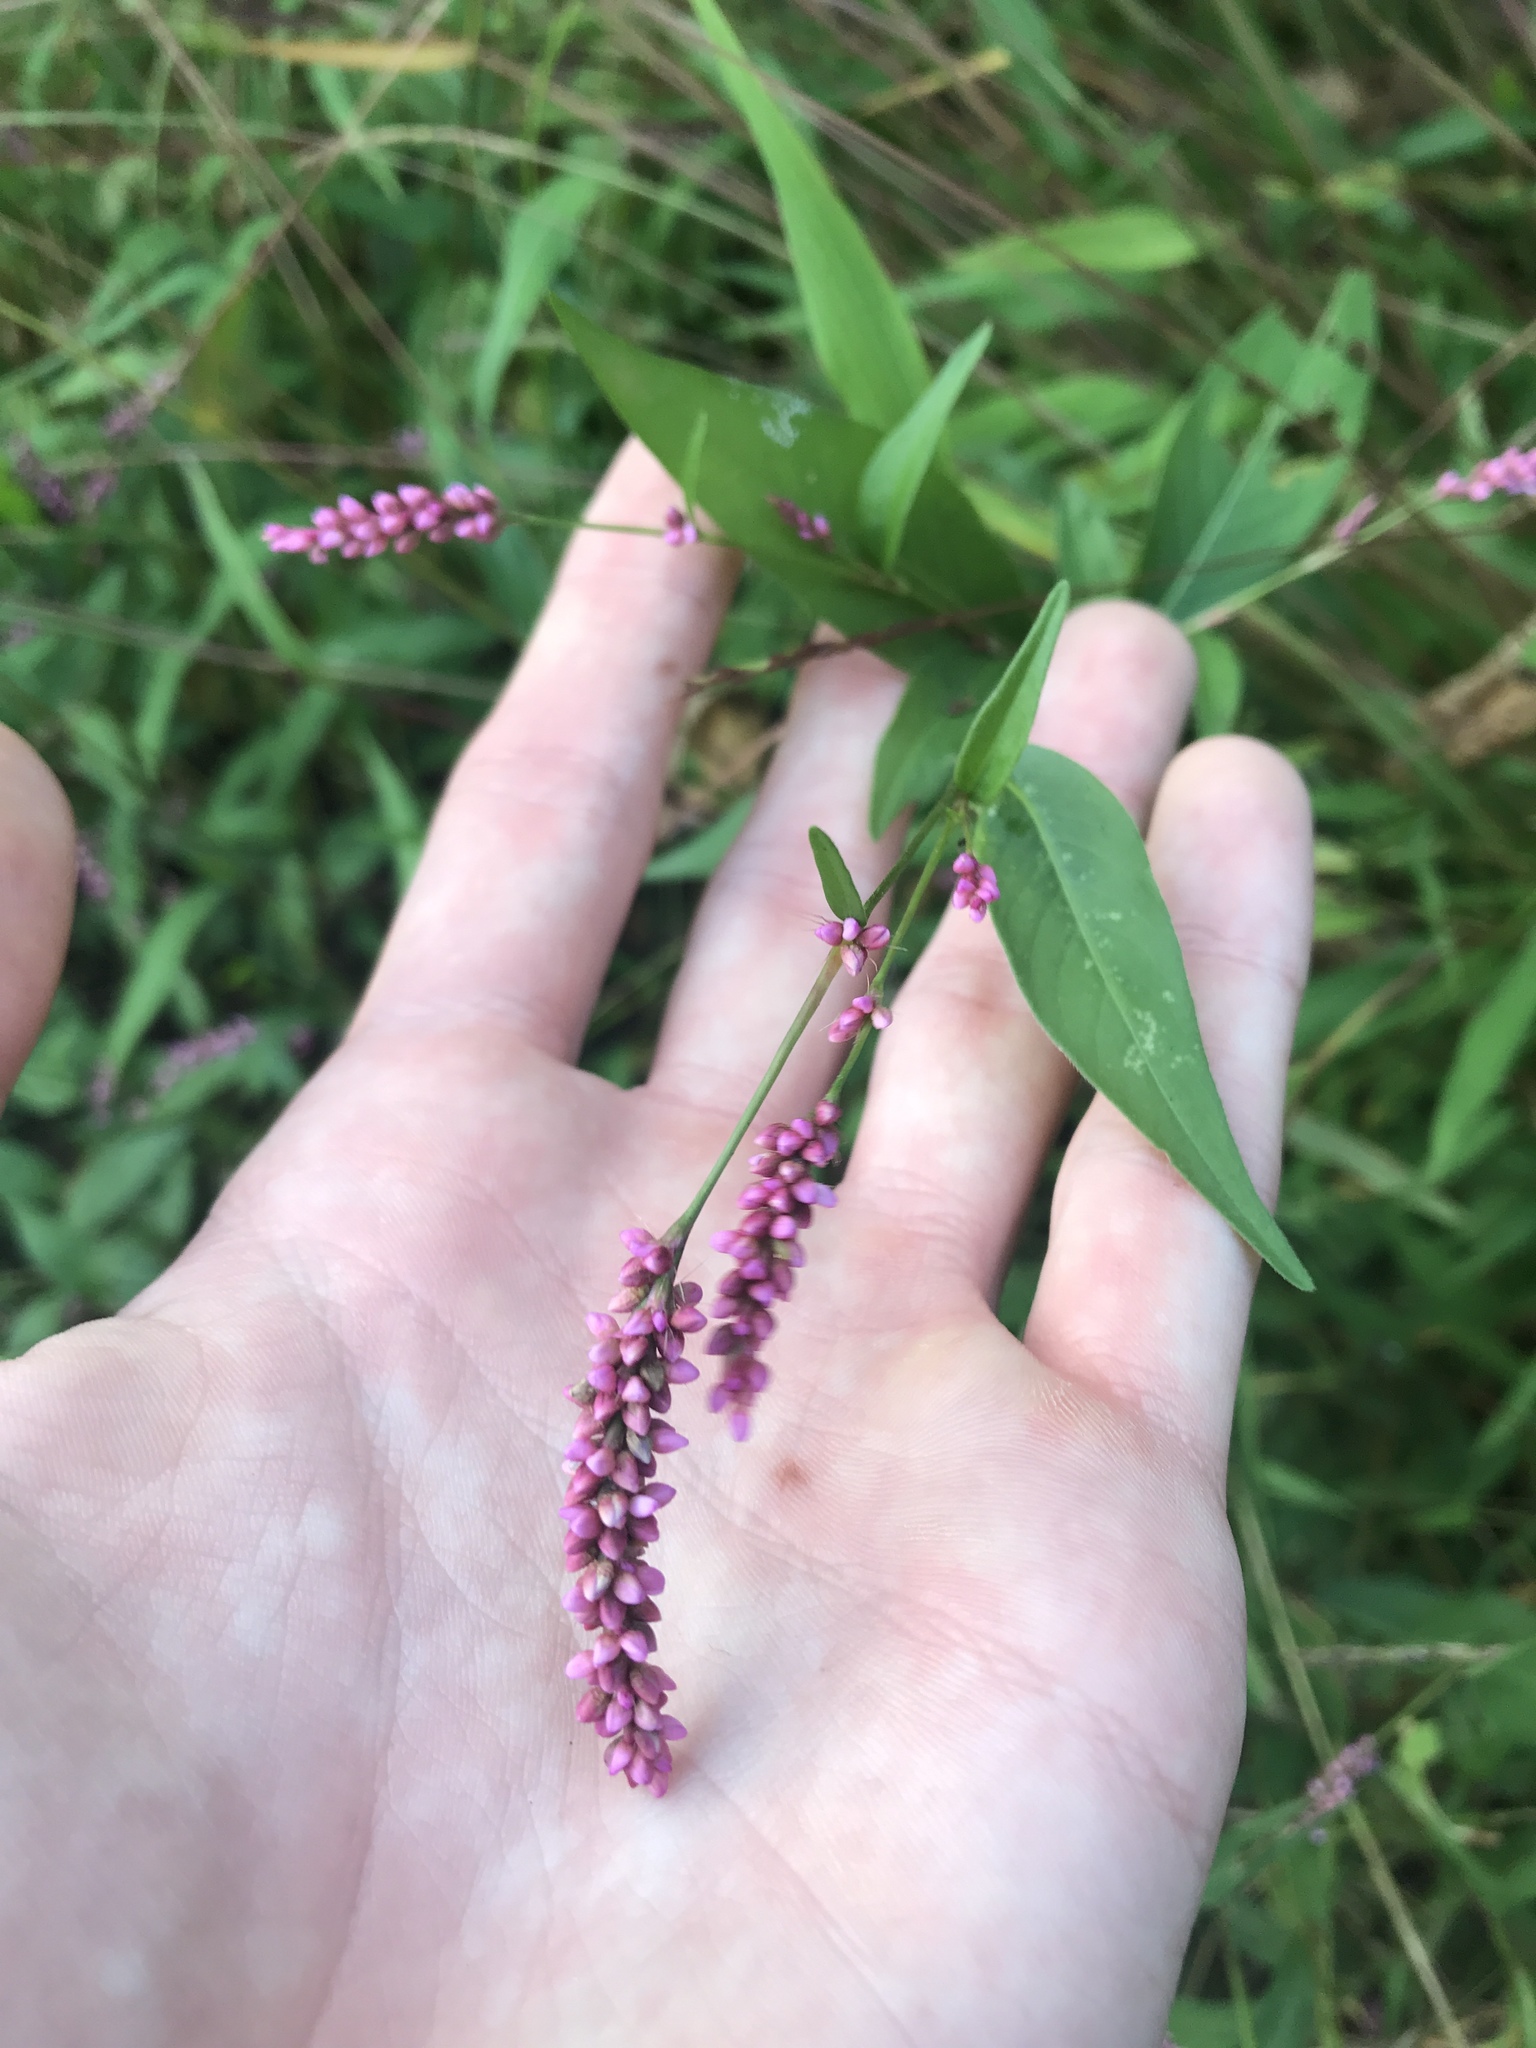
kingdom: Plantae
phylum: Tracheophyta
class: Magnoliopsida
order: Caryophyllales
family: Polygonaceae
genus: Persicaria
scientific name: Persicaria longiseta
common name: Bristly lady's-thumb
